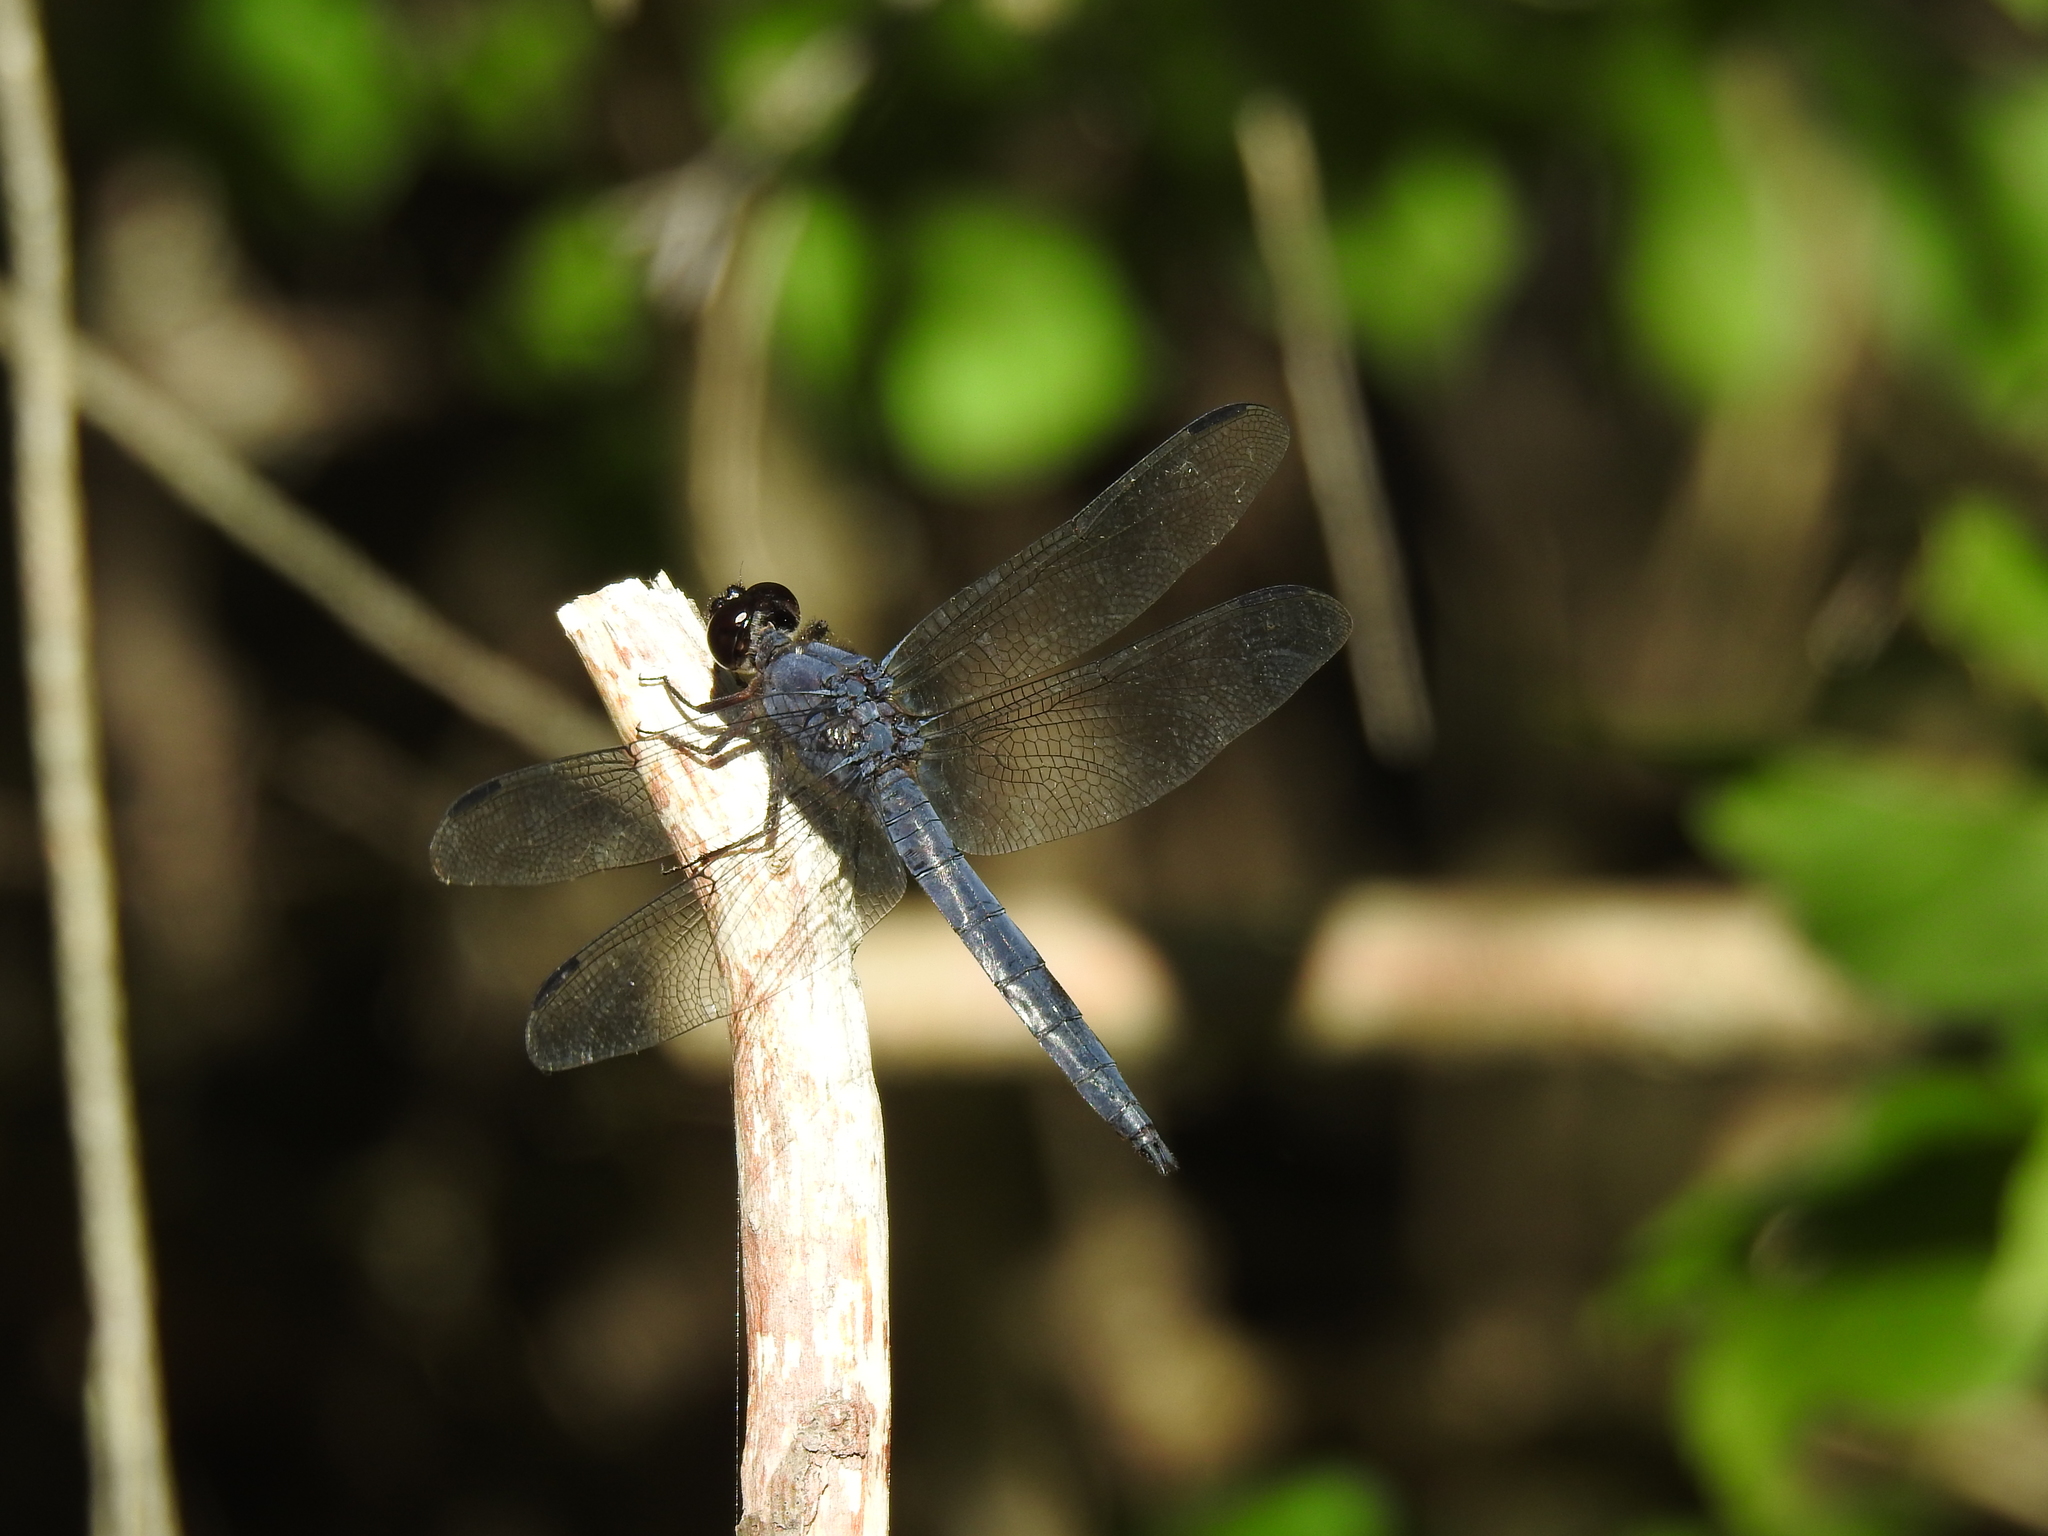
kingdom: Animalia
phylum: Arthropoda
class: Insecta
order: Odonata
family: Libellulidae
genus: Libellula
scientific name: Libellula incesta
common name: Slaty skimmer
